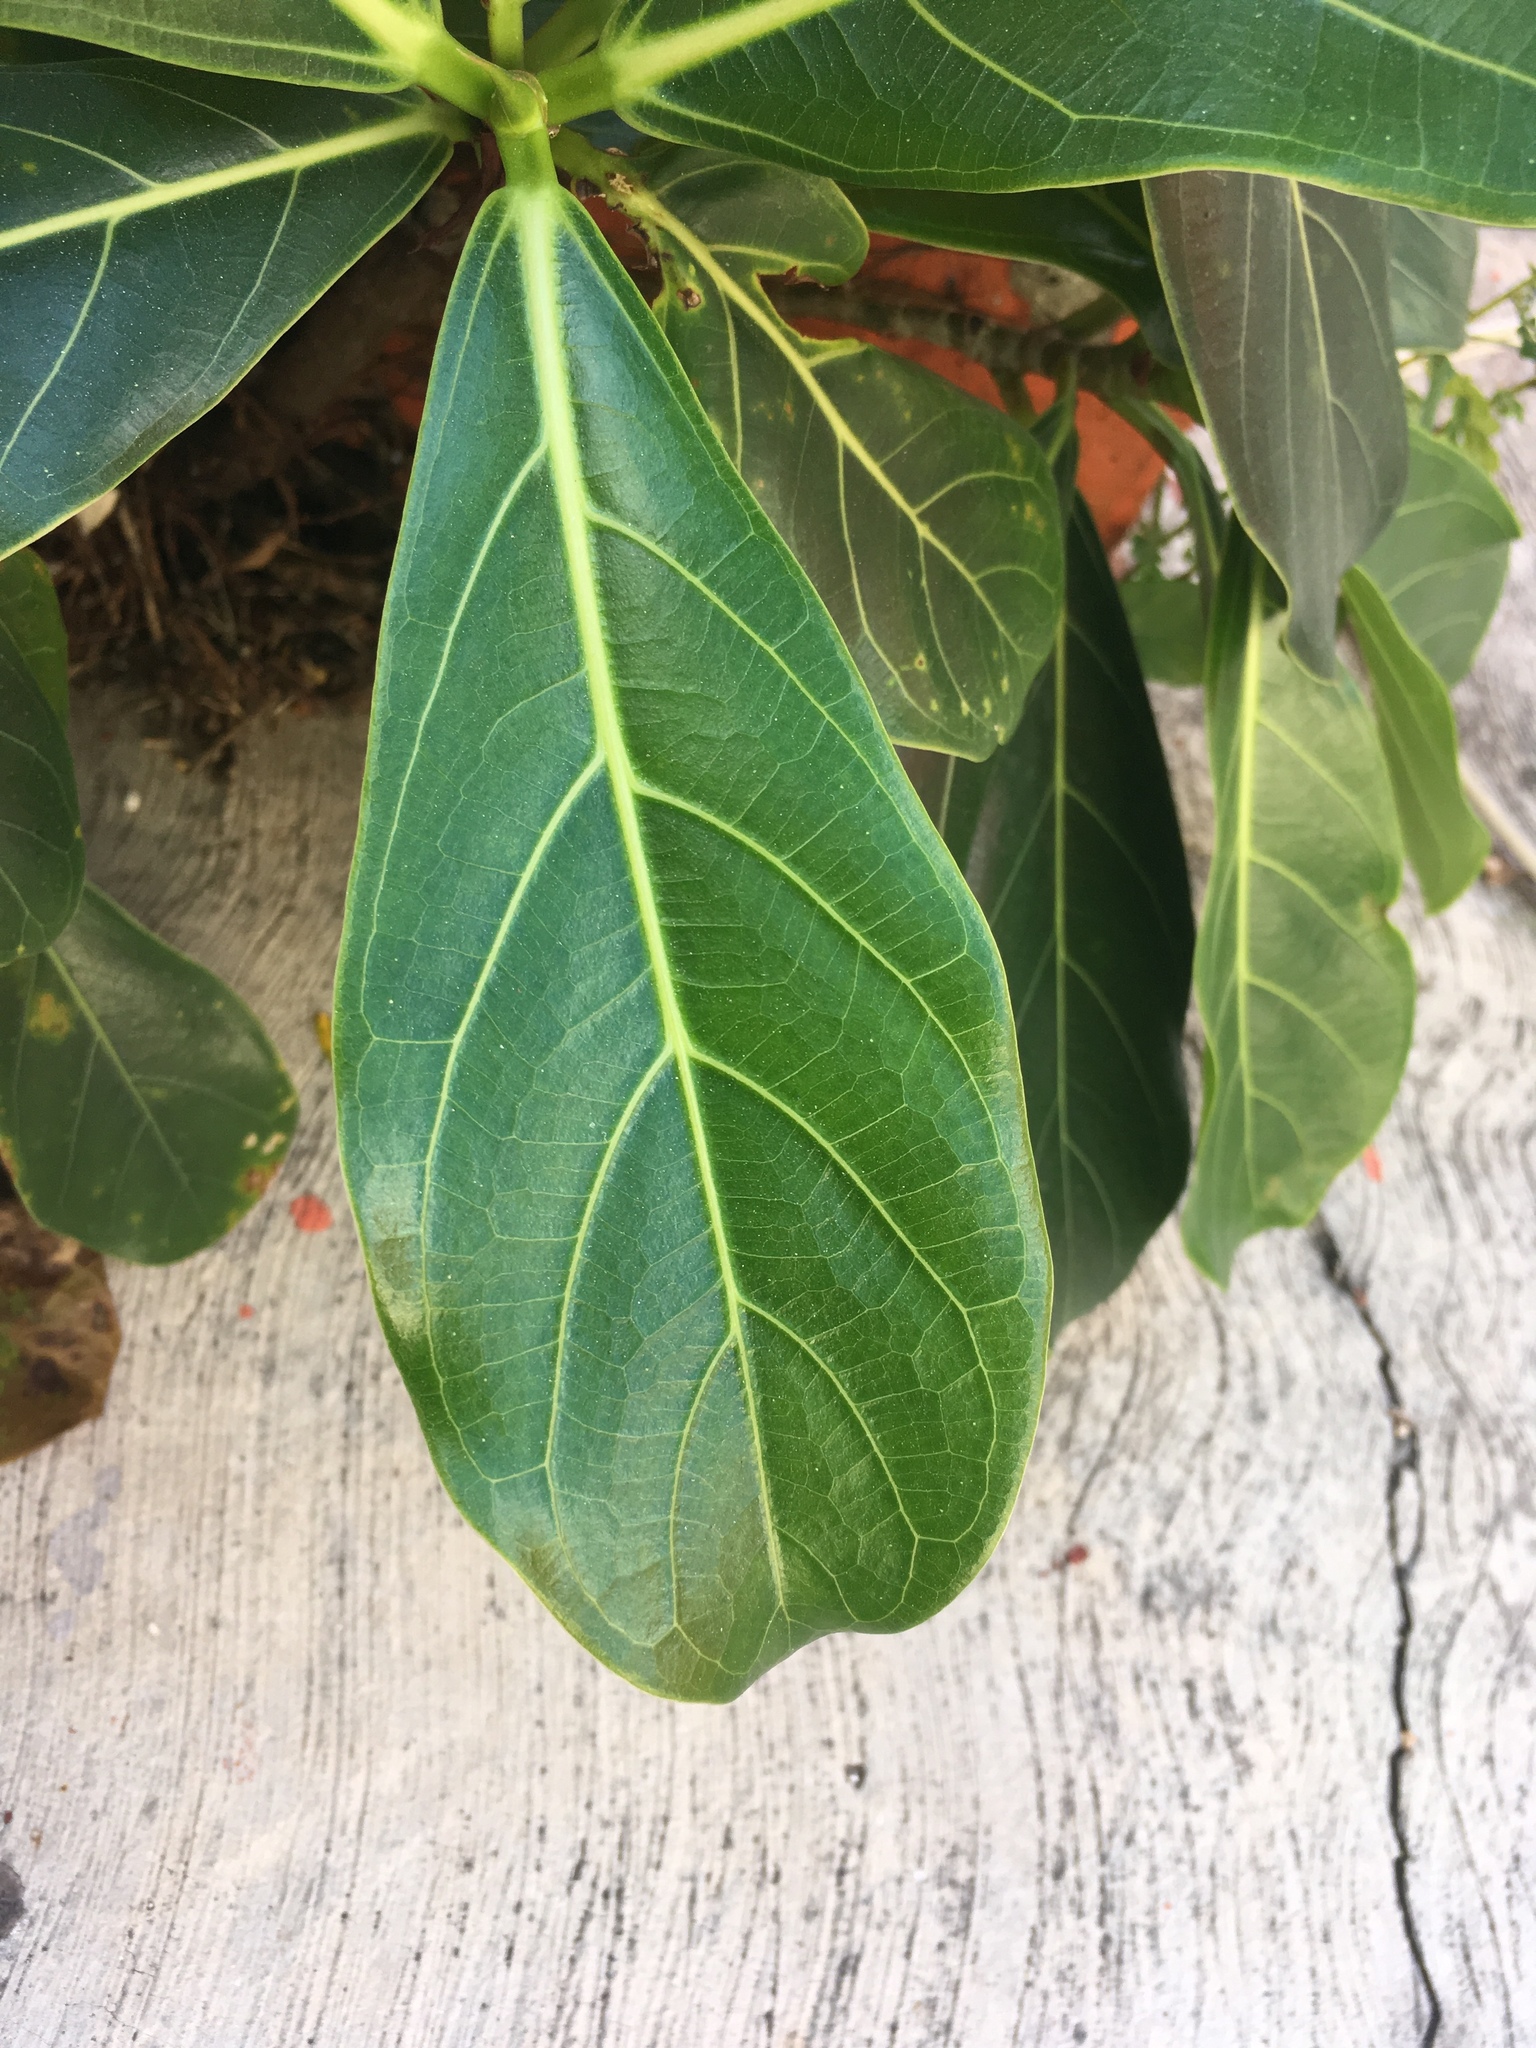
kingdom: Plantae
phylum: Tracheophyta
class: Magnoliopsida
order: Rosales
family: Moraceae
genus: Ficus
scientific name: Ficus obtusifolia
